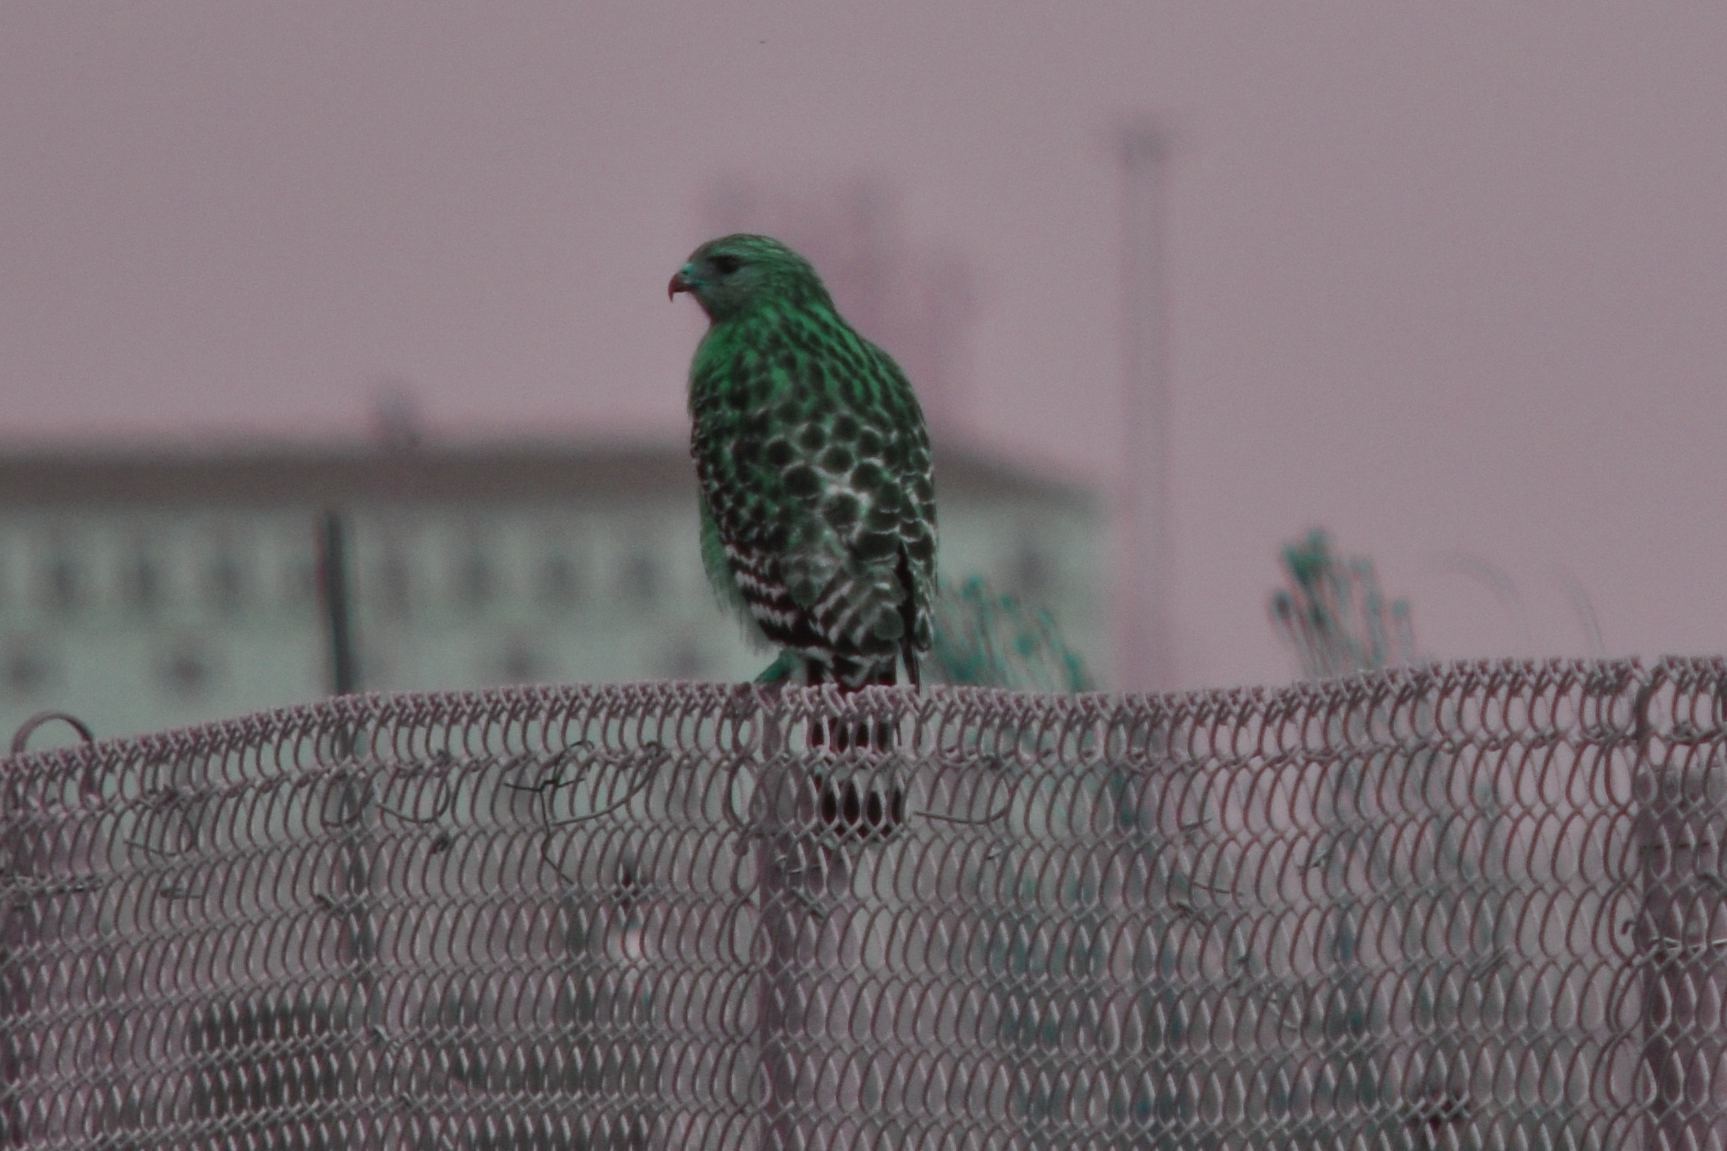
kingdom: Animalia
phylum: Chordata
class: Aves
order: Accipitriformes
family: Accipitridae
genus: Buteo
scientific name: Buteo lineatus
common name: Red-shouldered hawk
